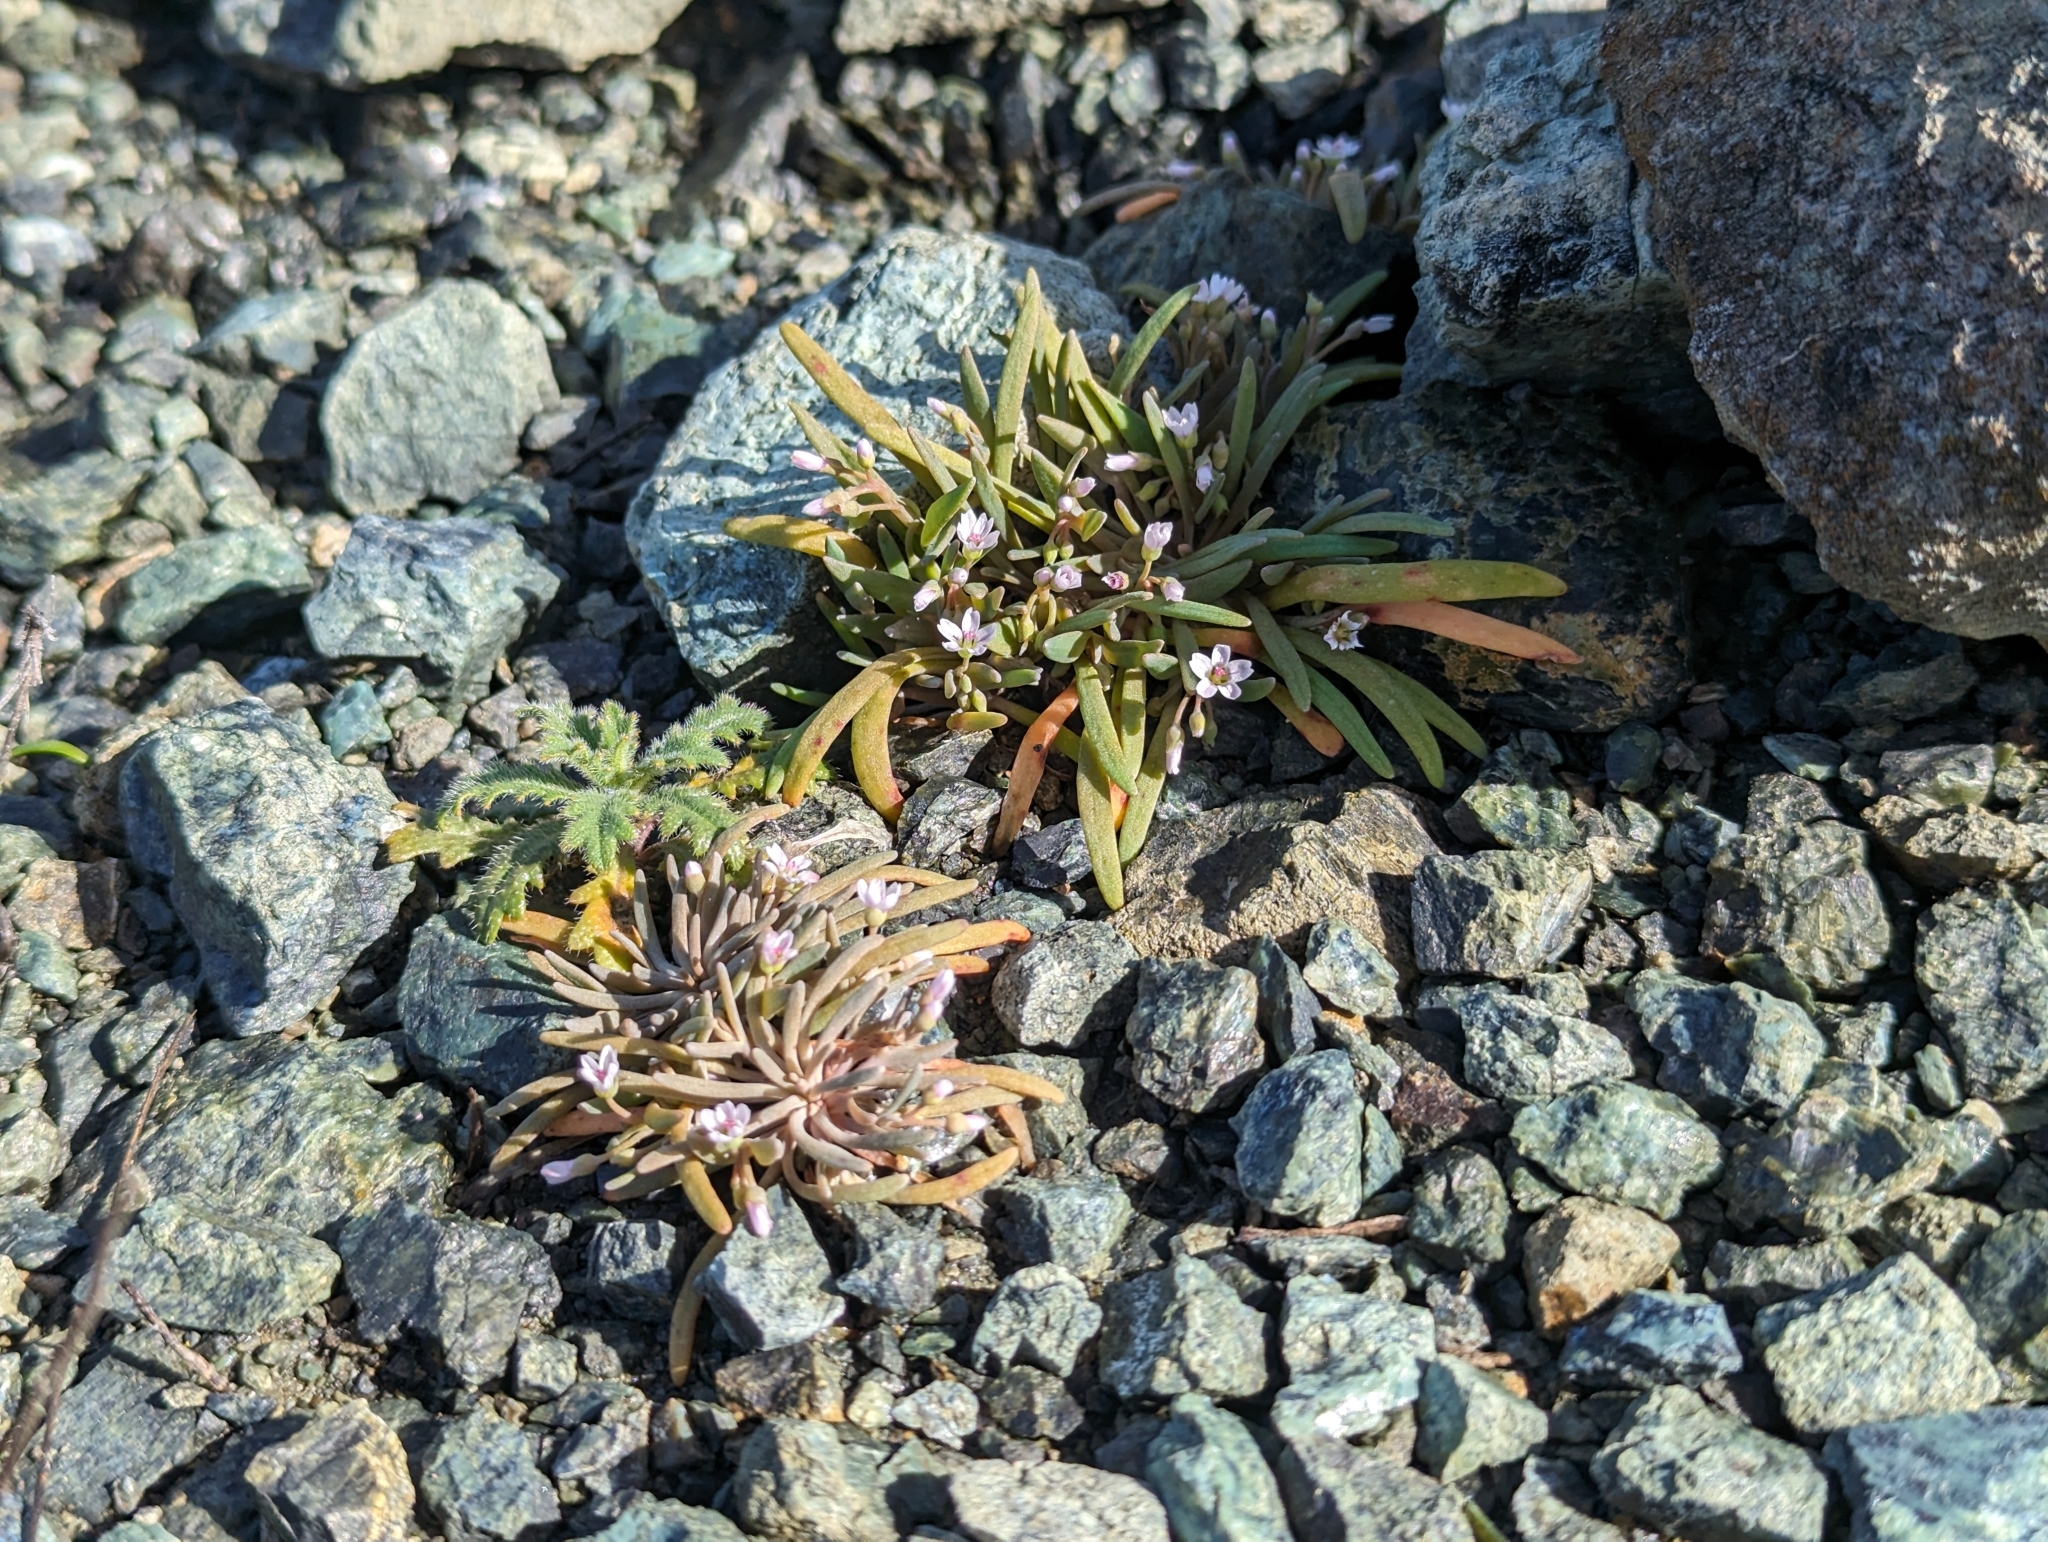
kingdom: Plantae
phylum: Tracheophyta
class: Magnoliopsida
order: Caryophyllales
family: Montiaceae
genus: Claytonia
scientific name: Claytonia exigua
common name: Pale spring beauty
